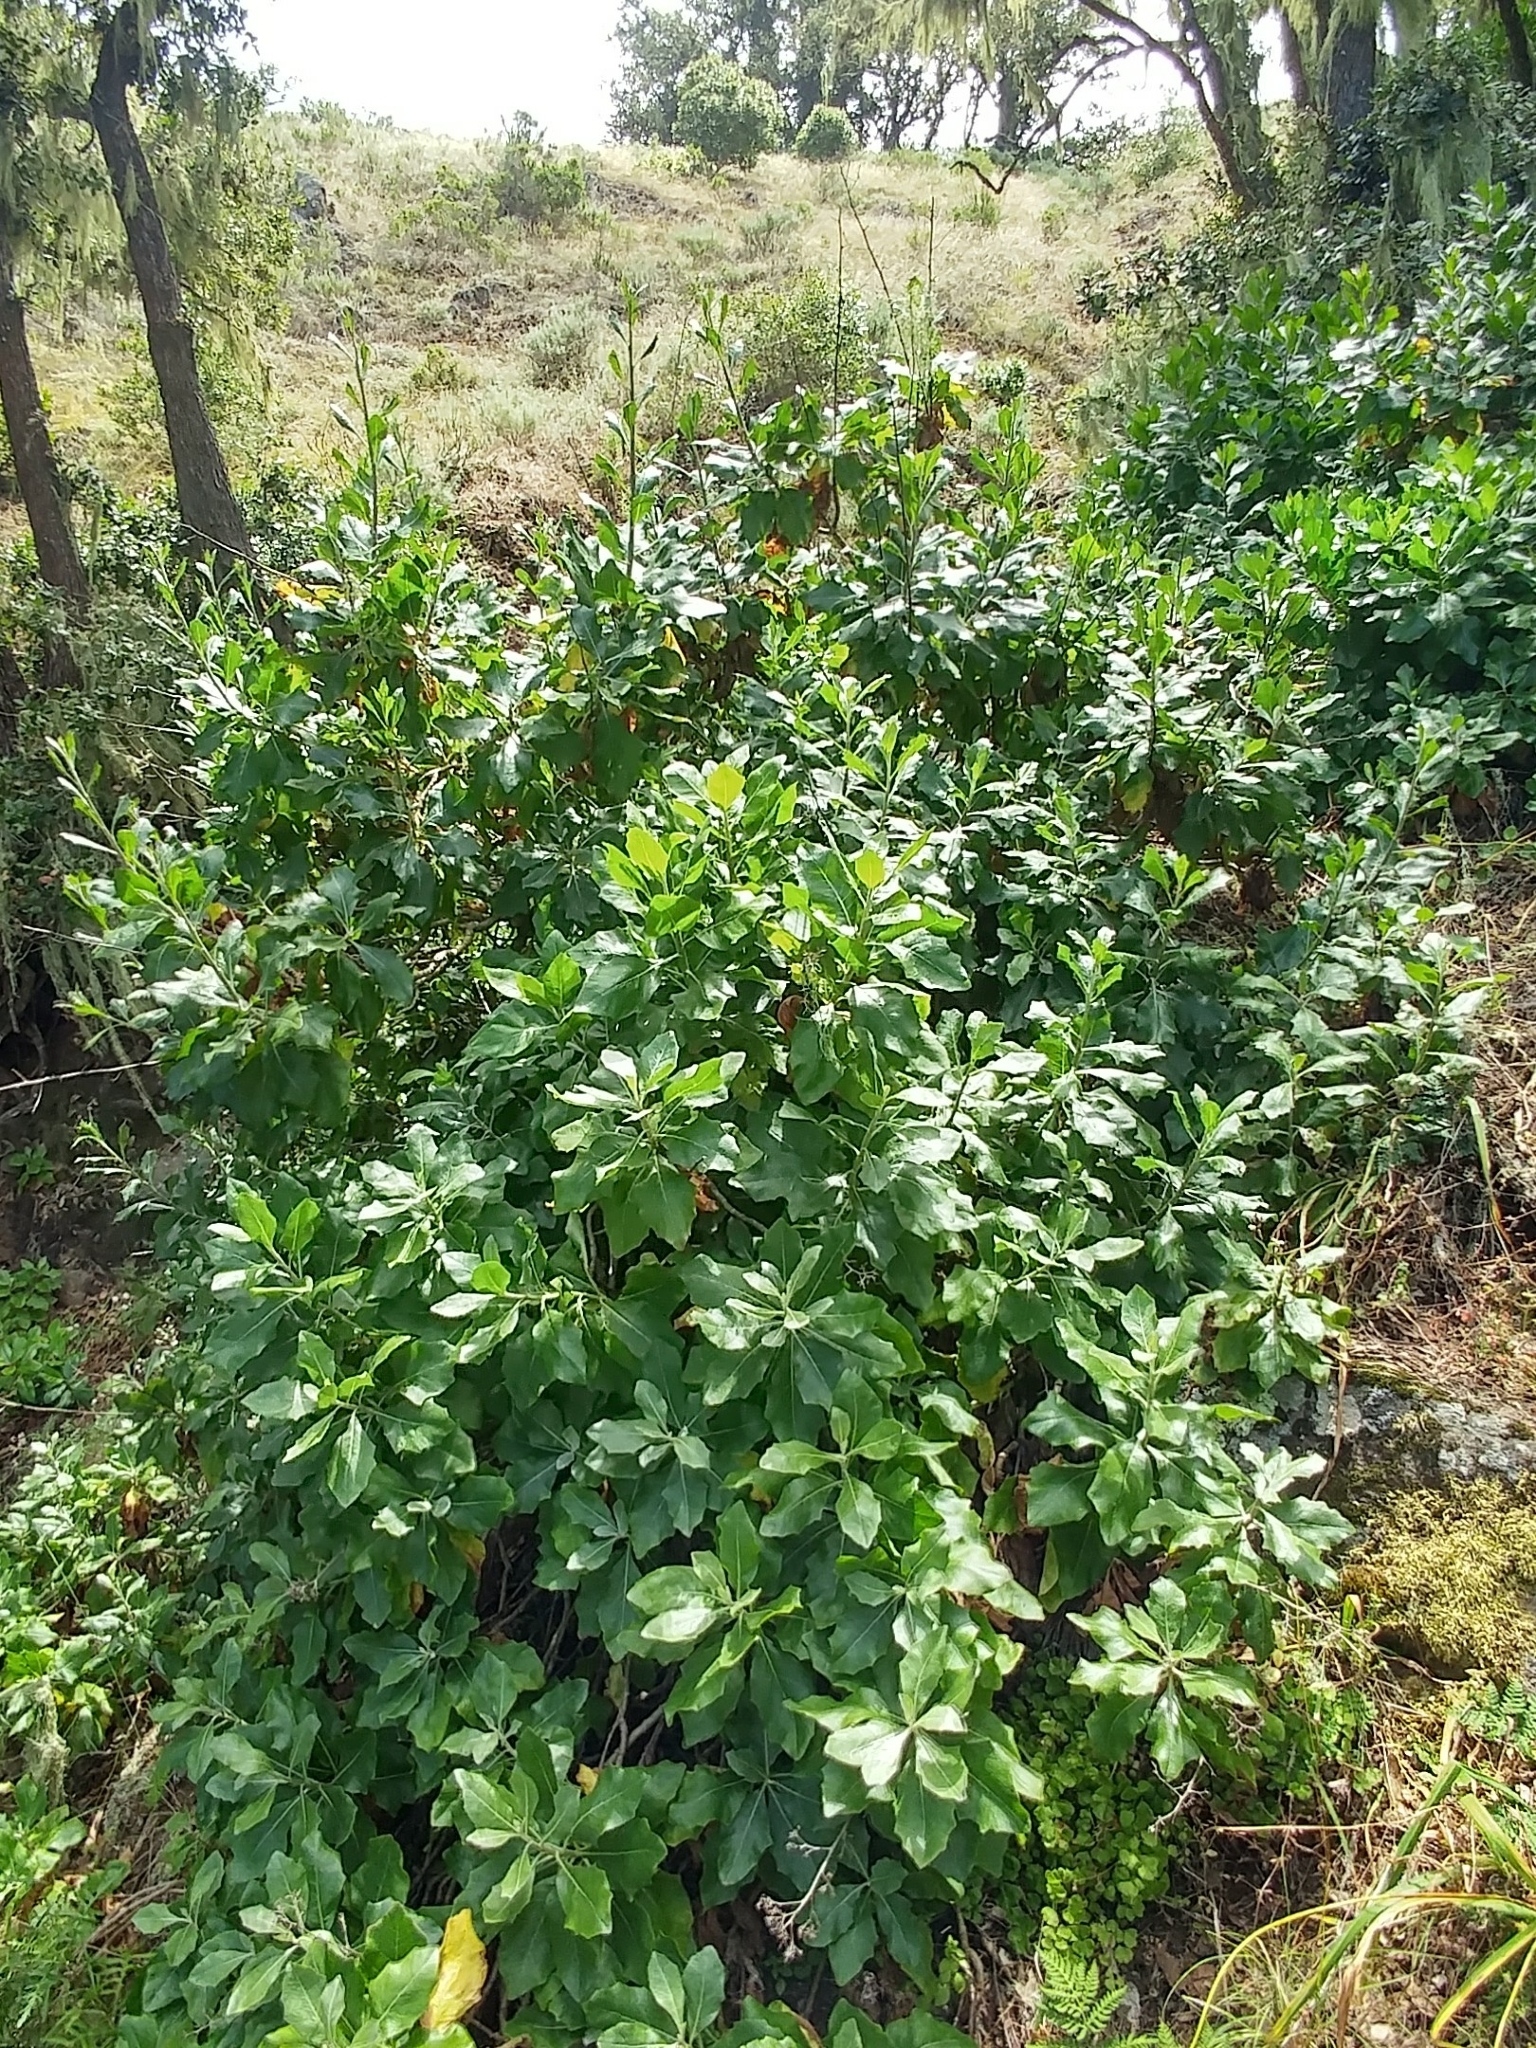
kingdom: Plantae
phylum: Tracheophyta
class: Magnoliopsida
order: Asterales
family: Asteraceae
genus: Munzothamnus
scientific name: Munzothamnus blairii
